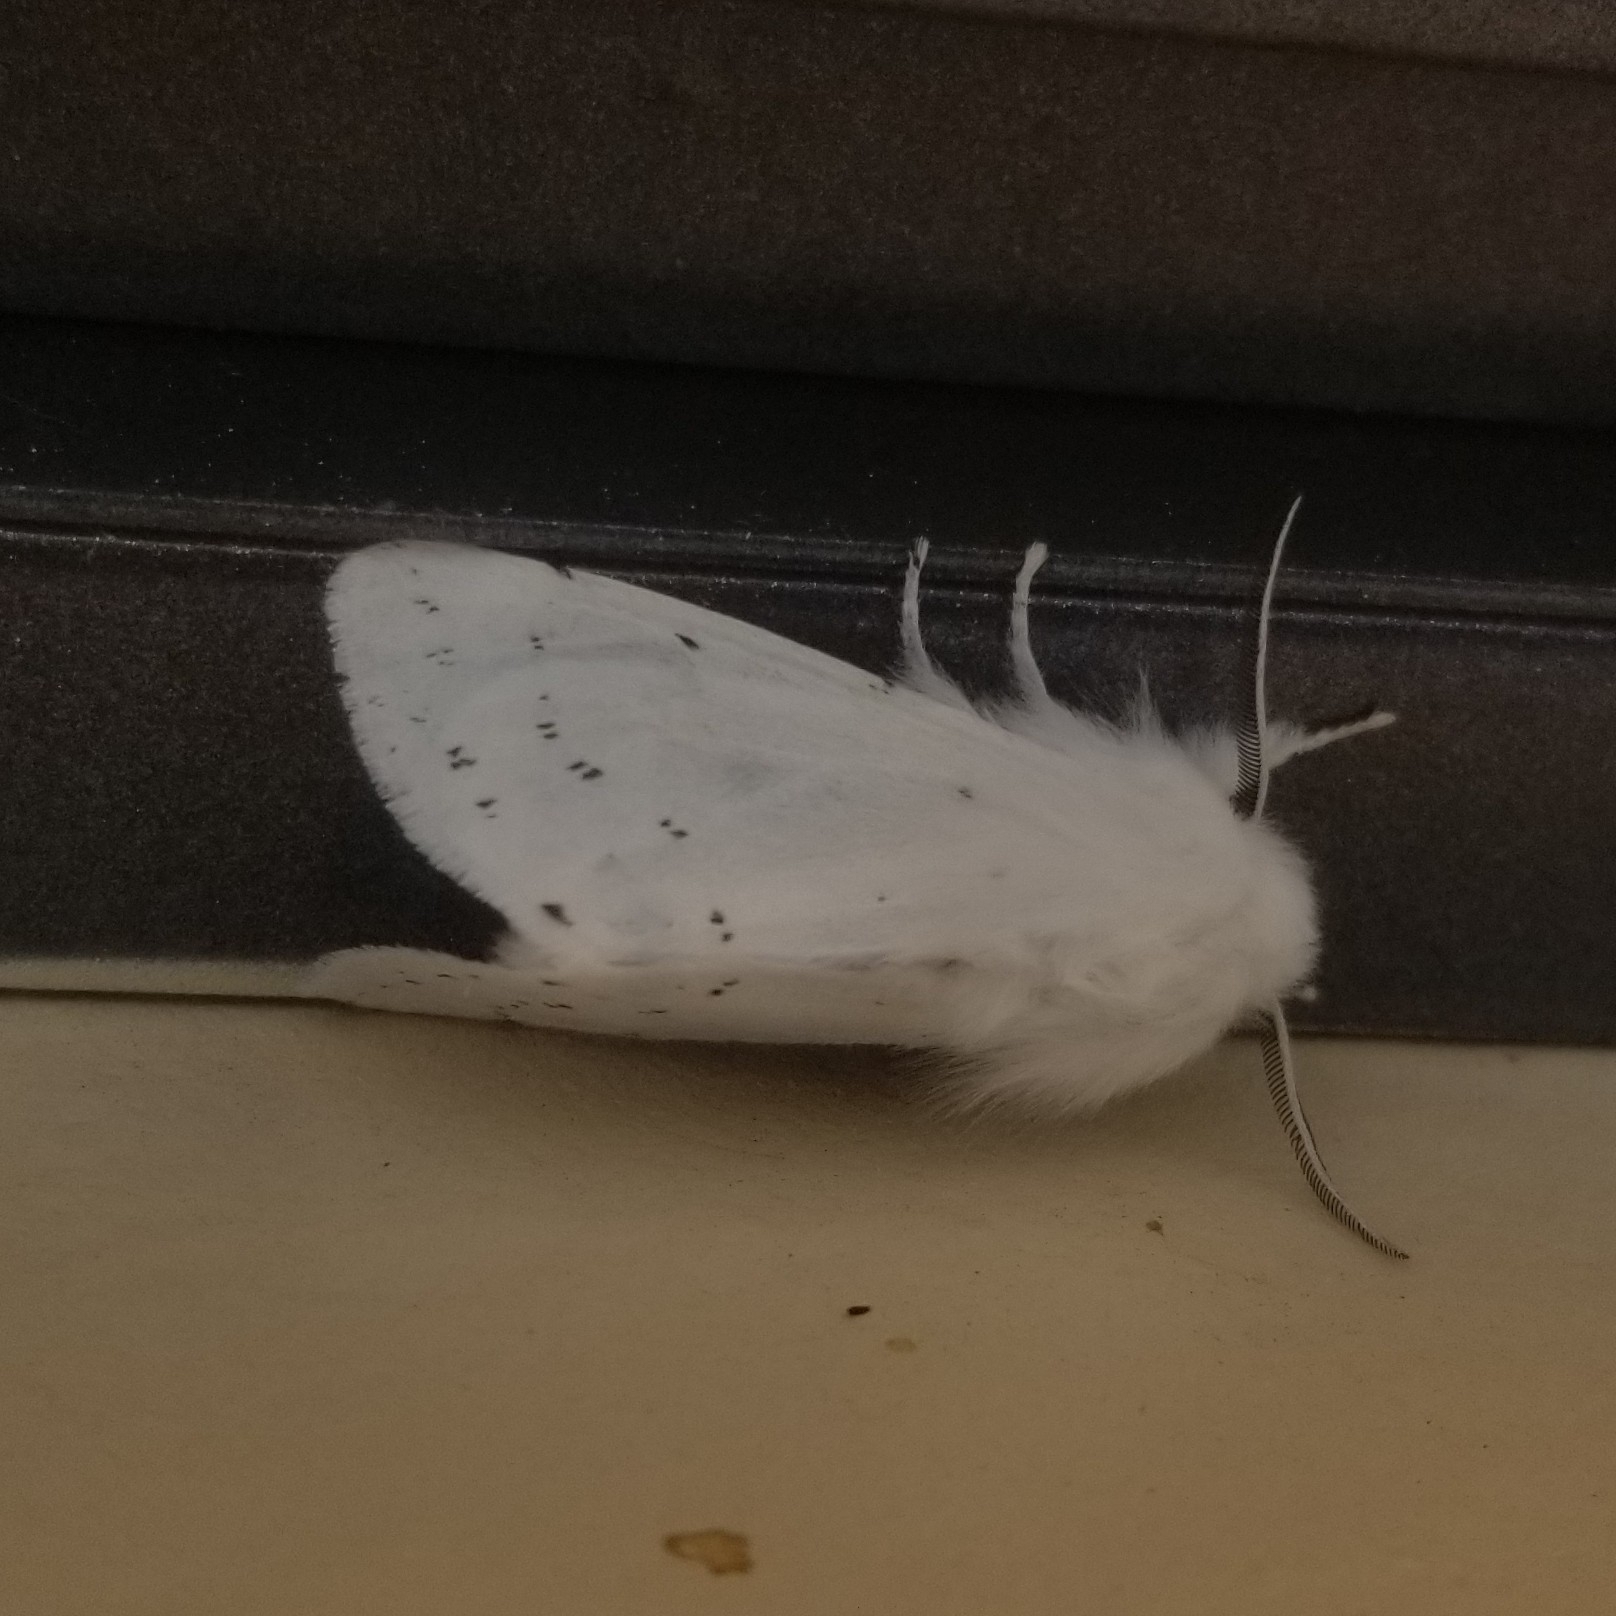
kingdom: Animalia
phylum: Arthropoda
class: Insecta
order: Lepidoptera
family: Erebidae
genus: Spilosoma
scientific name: Spilosoma vestalis
